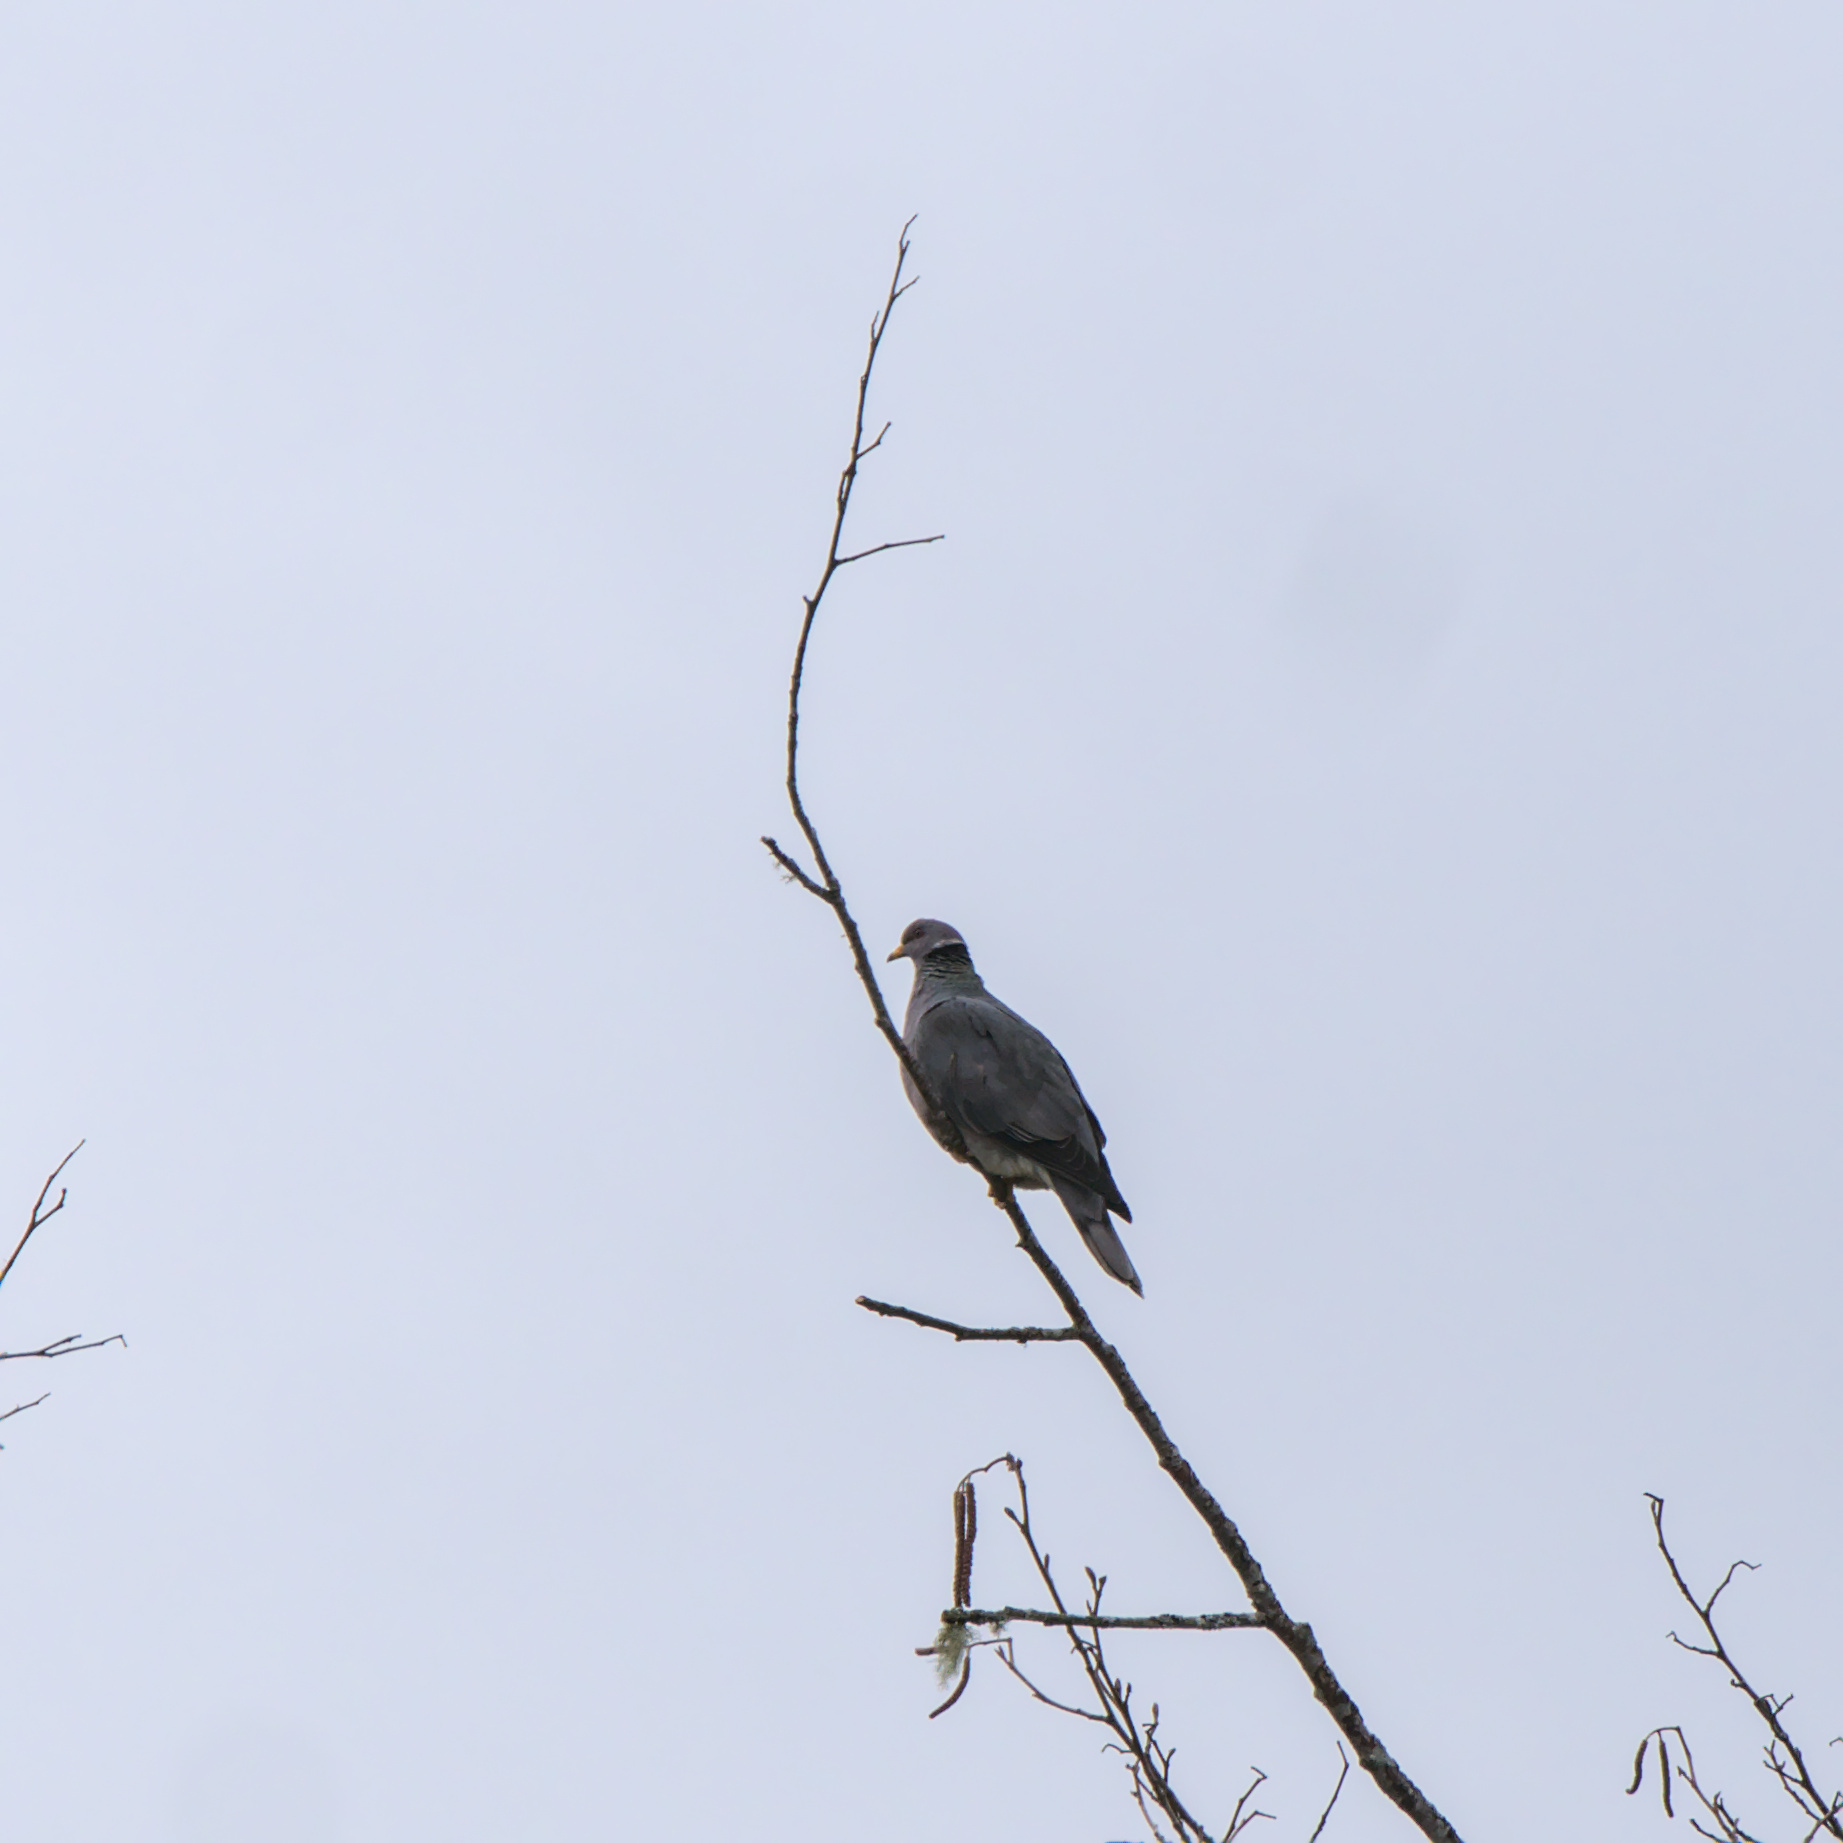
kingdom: Animalia
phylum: Chordata
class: Aves
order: Columbiformes
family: Columbidae
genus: Patagioenas
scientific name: Patagioenas fasciata
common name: Band-tailed pigeon
